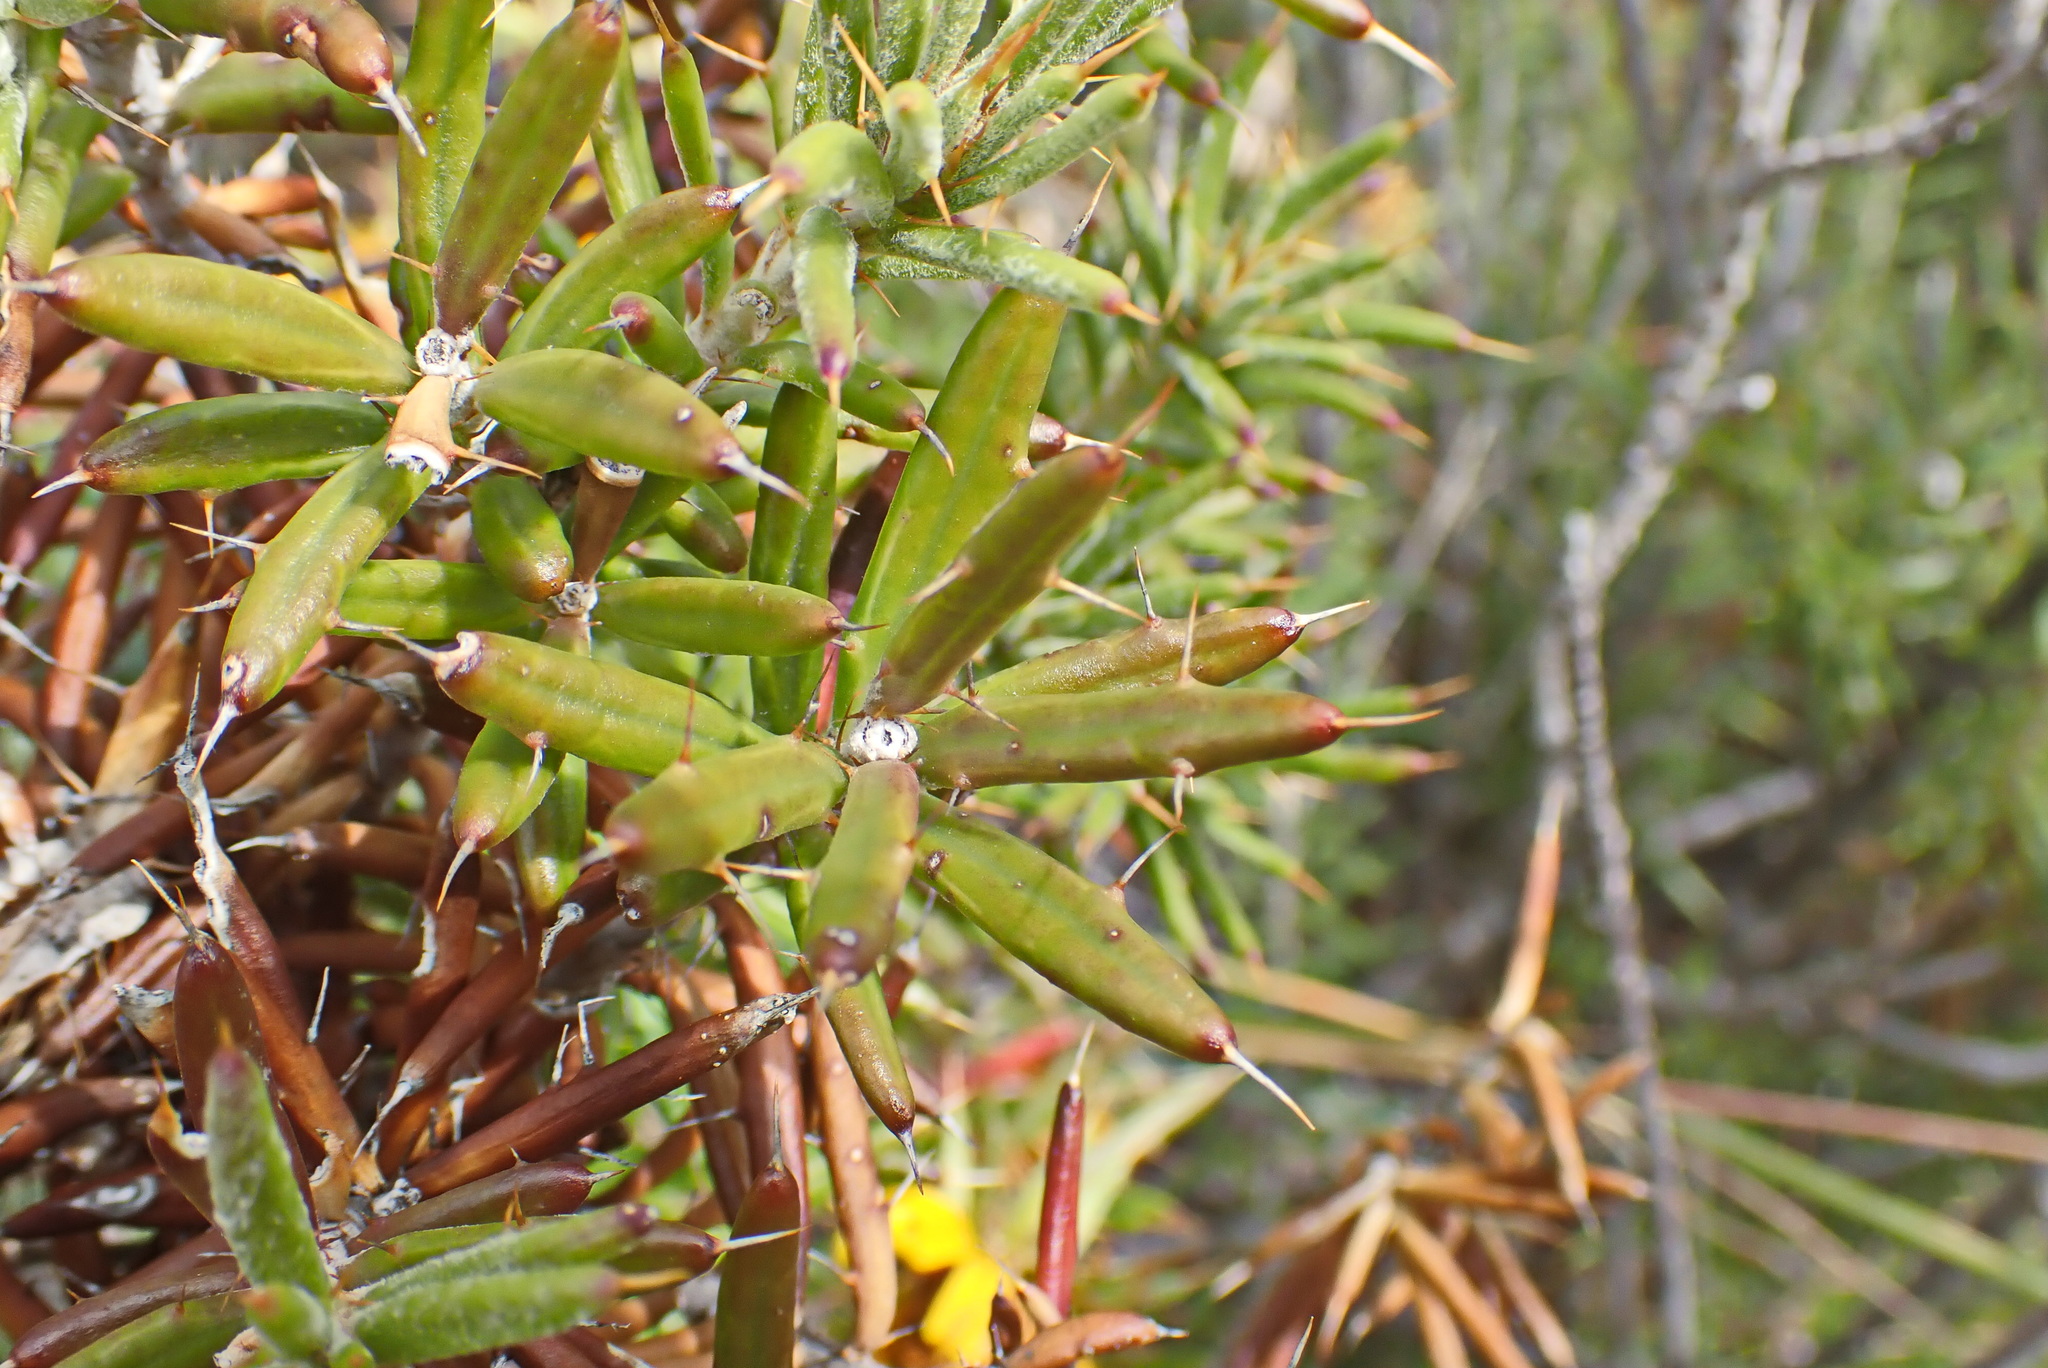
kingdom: Plantae
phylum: Tracheophyta
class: Magnoliopsida
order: Asterales
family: Asteraceae
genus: Berkheya
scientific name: Berkheya angustifolia
